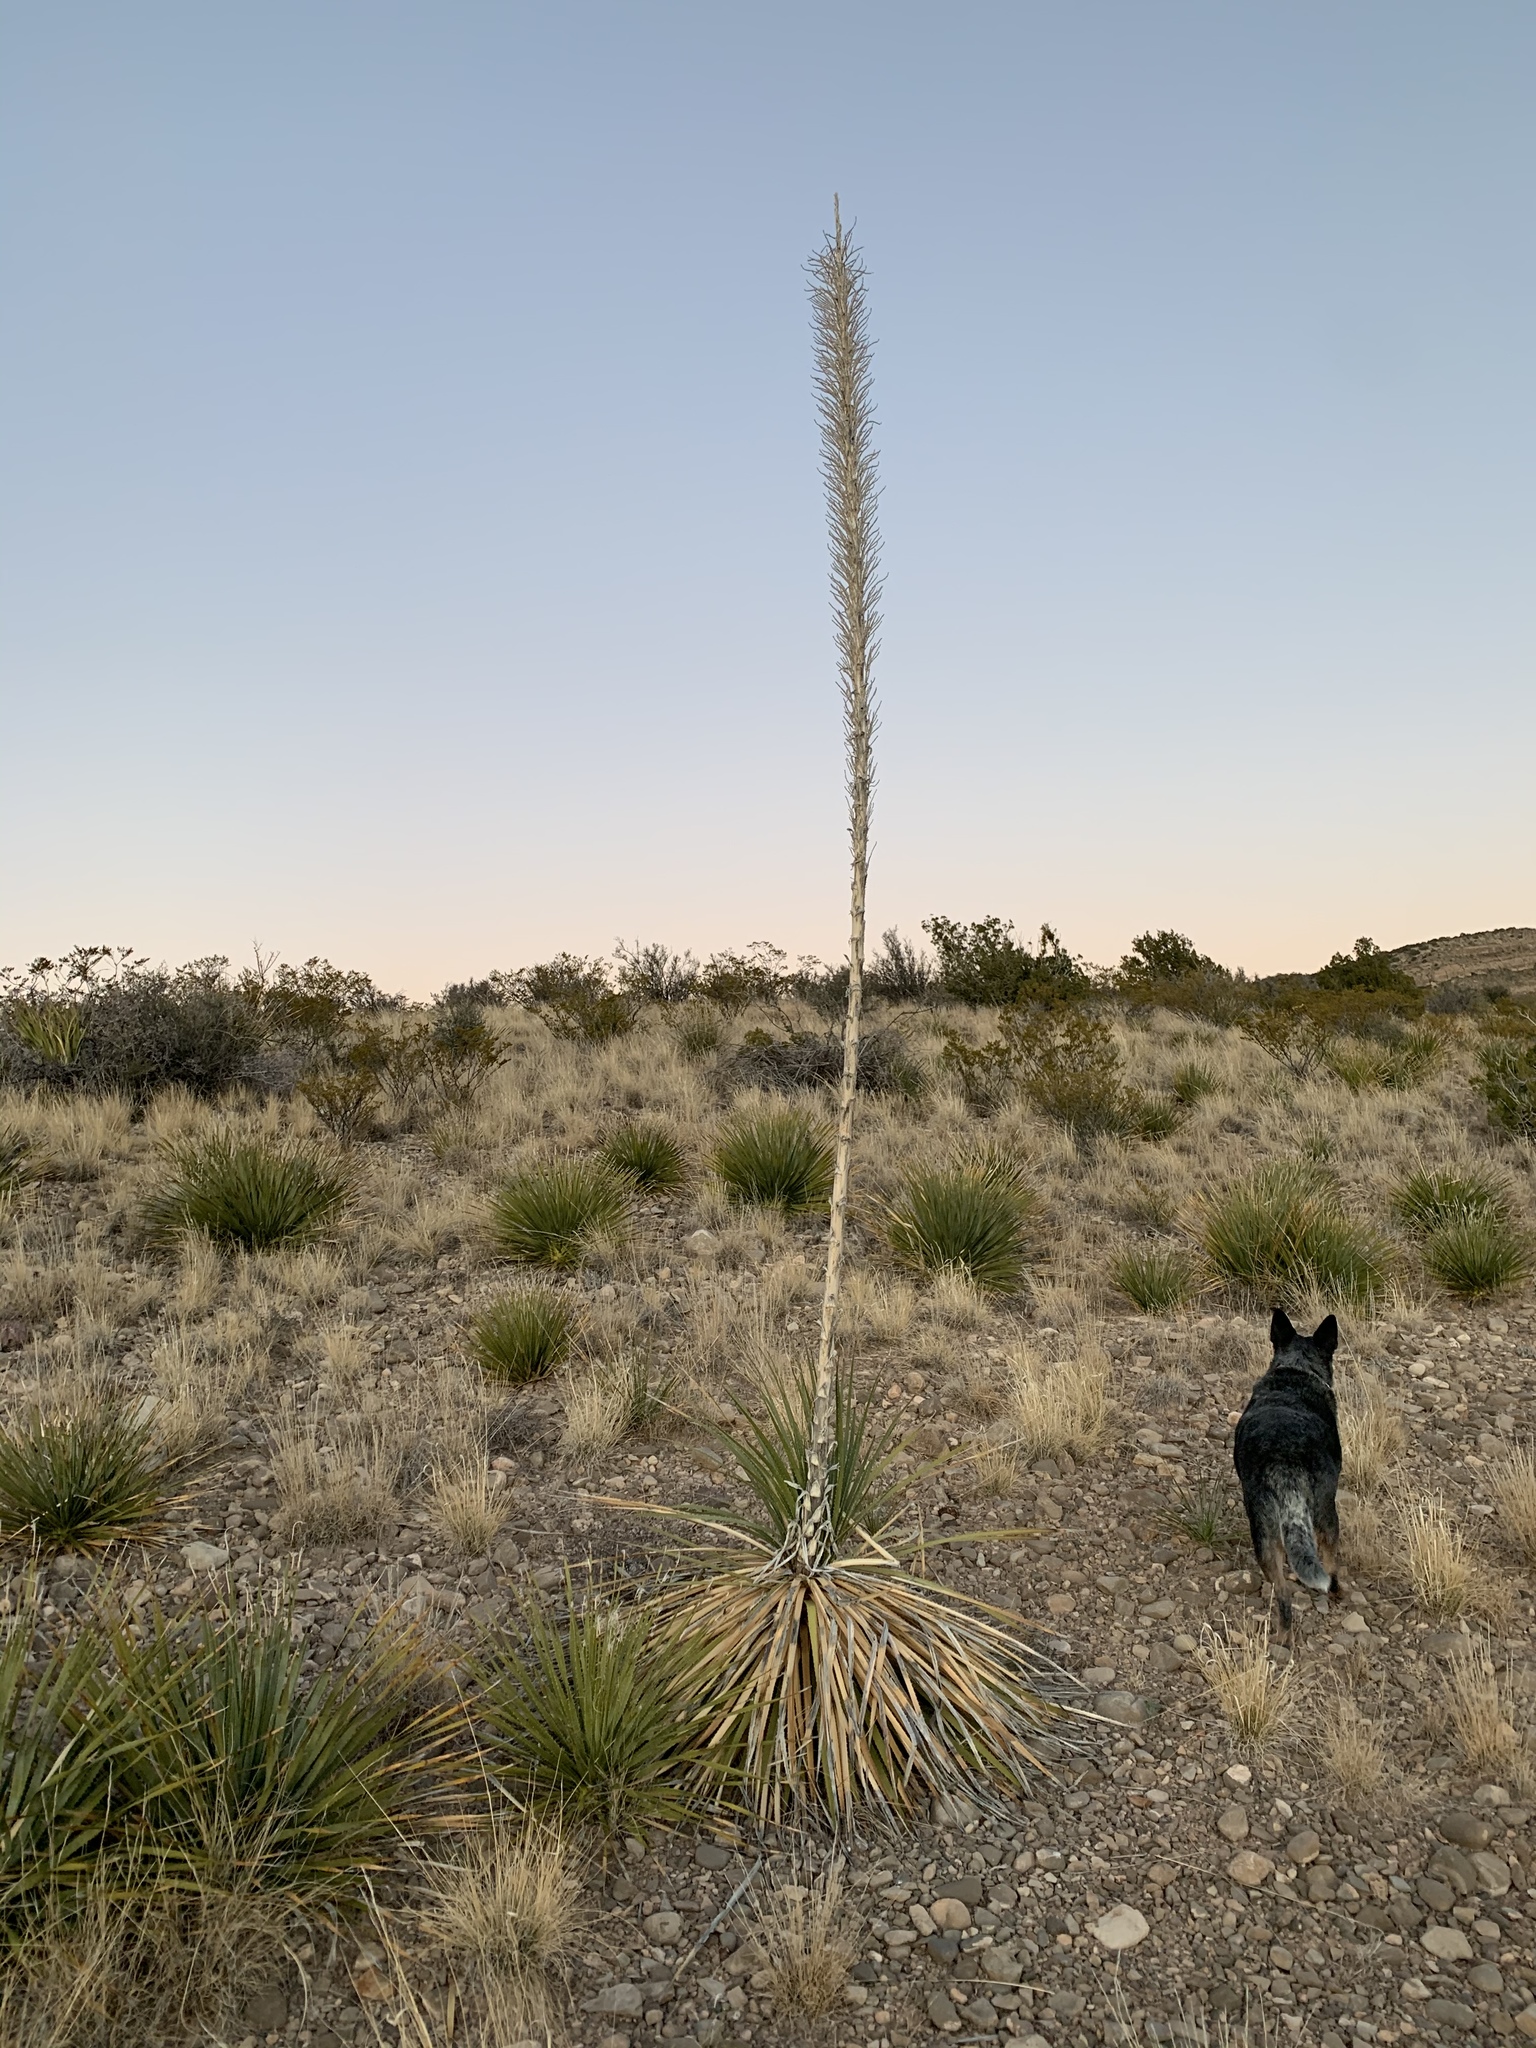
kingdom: Plantae
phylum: Tracheophyta
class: Liliopsida
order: Asparagales
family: Asparagaceae
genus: Dasylirion
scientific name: Dasylirion wheeleri
